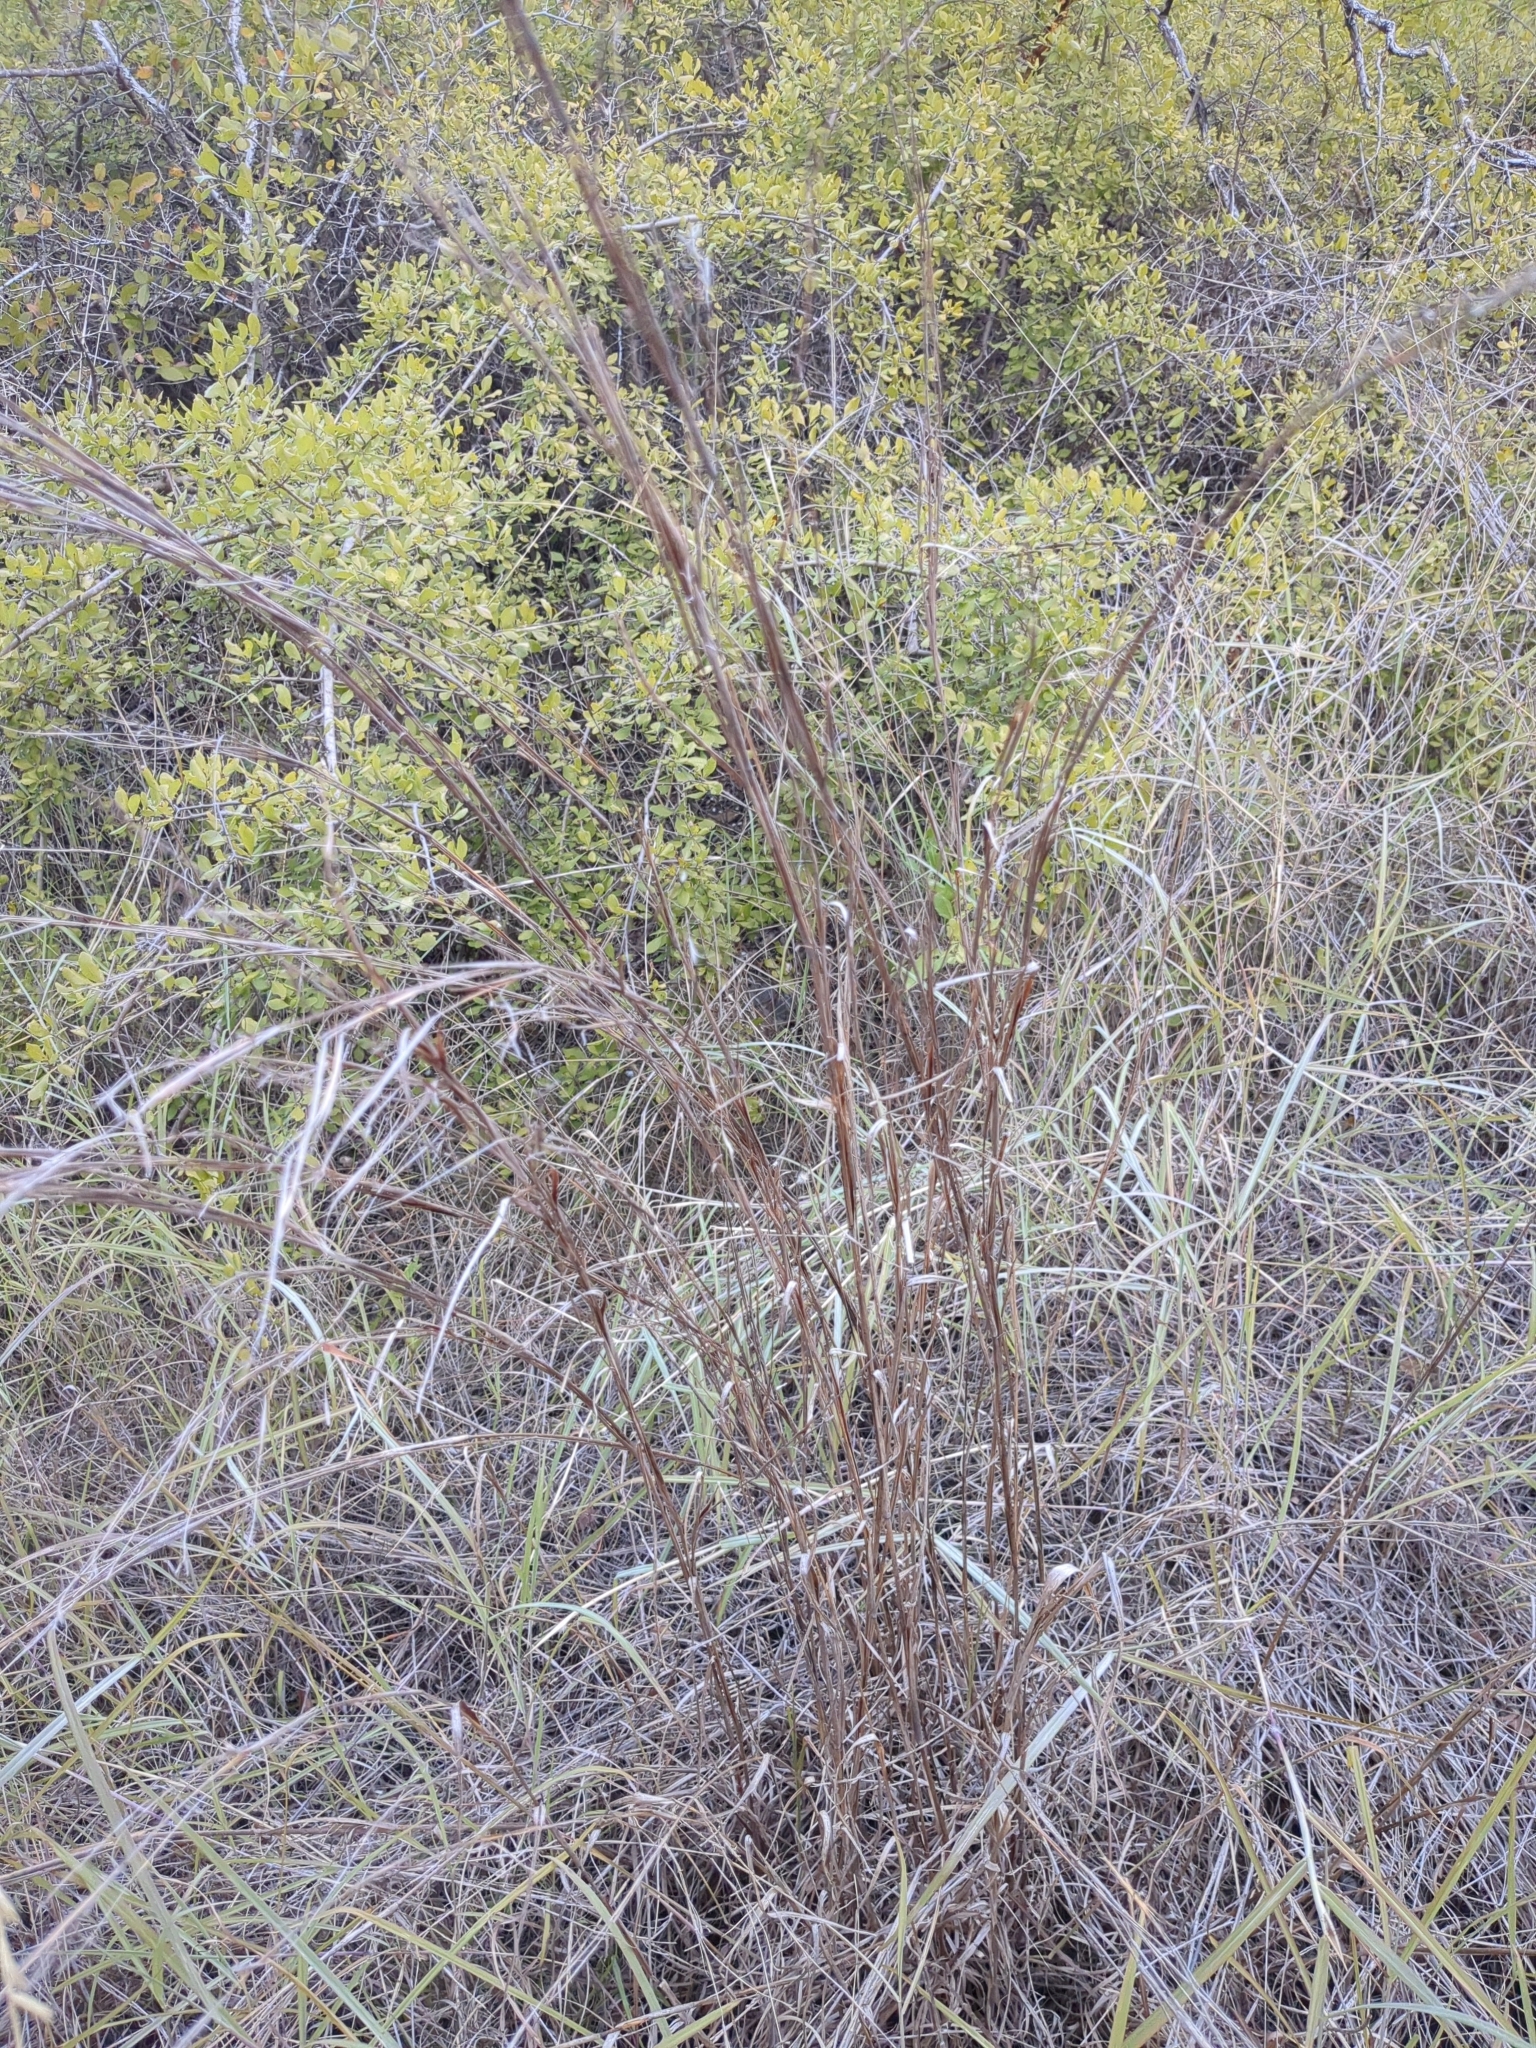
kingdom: Plantae
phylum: Tracheophyta
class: Liliopsida
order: Poales
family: Poaceae
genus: Schizachyrium
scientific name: Schizachyrium scoparium
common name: Little bluestem
